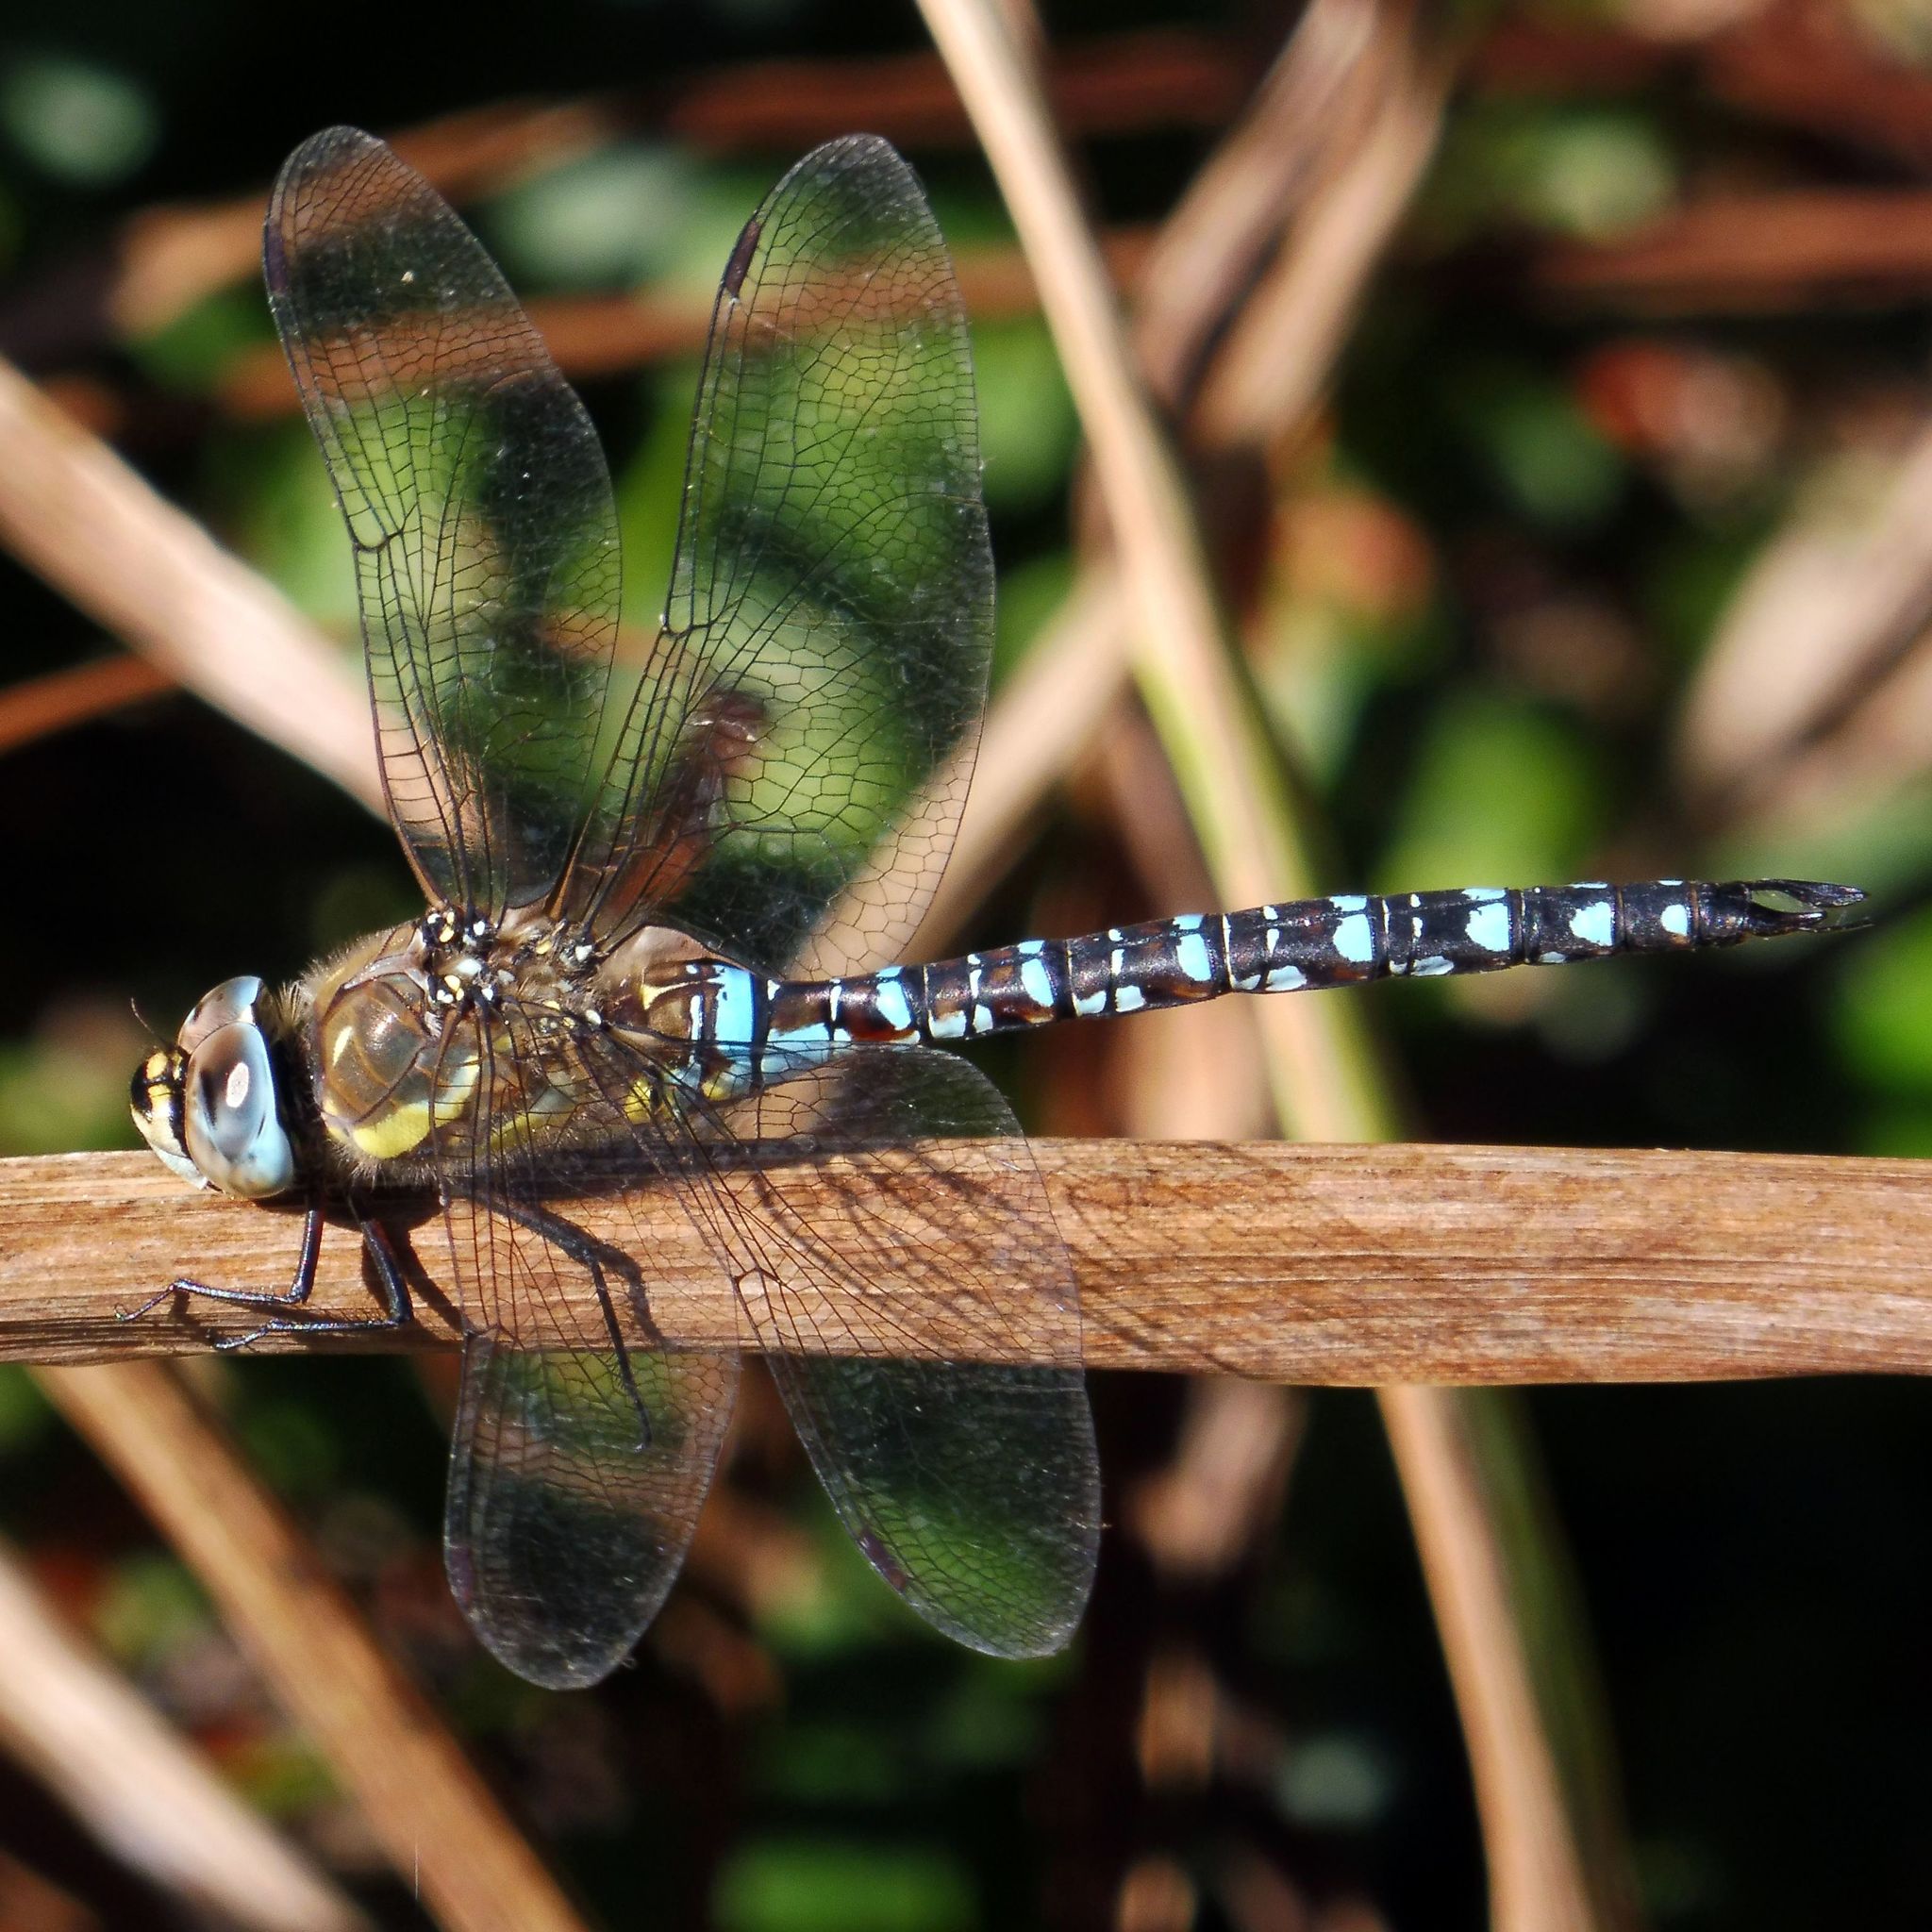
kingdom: Animalia
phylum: Arthropoda
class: Insecta
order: Odonata
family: Aeshnidae
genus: Aeshna
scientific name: Aeshna mixta
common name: Migrant hawker
